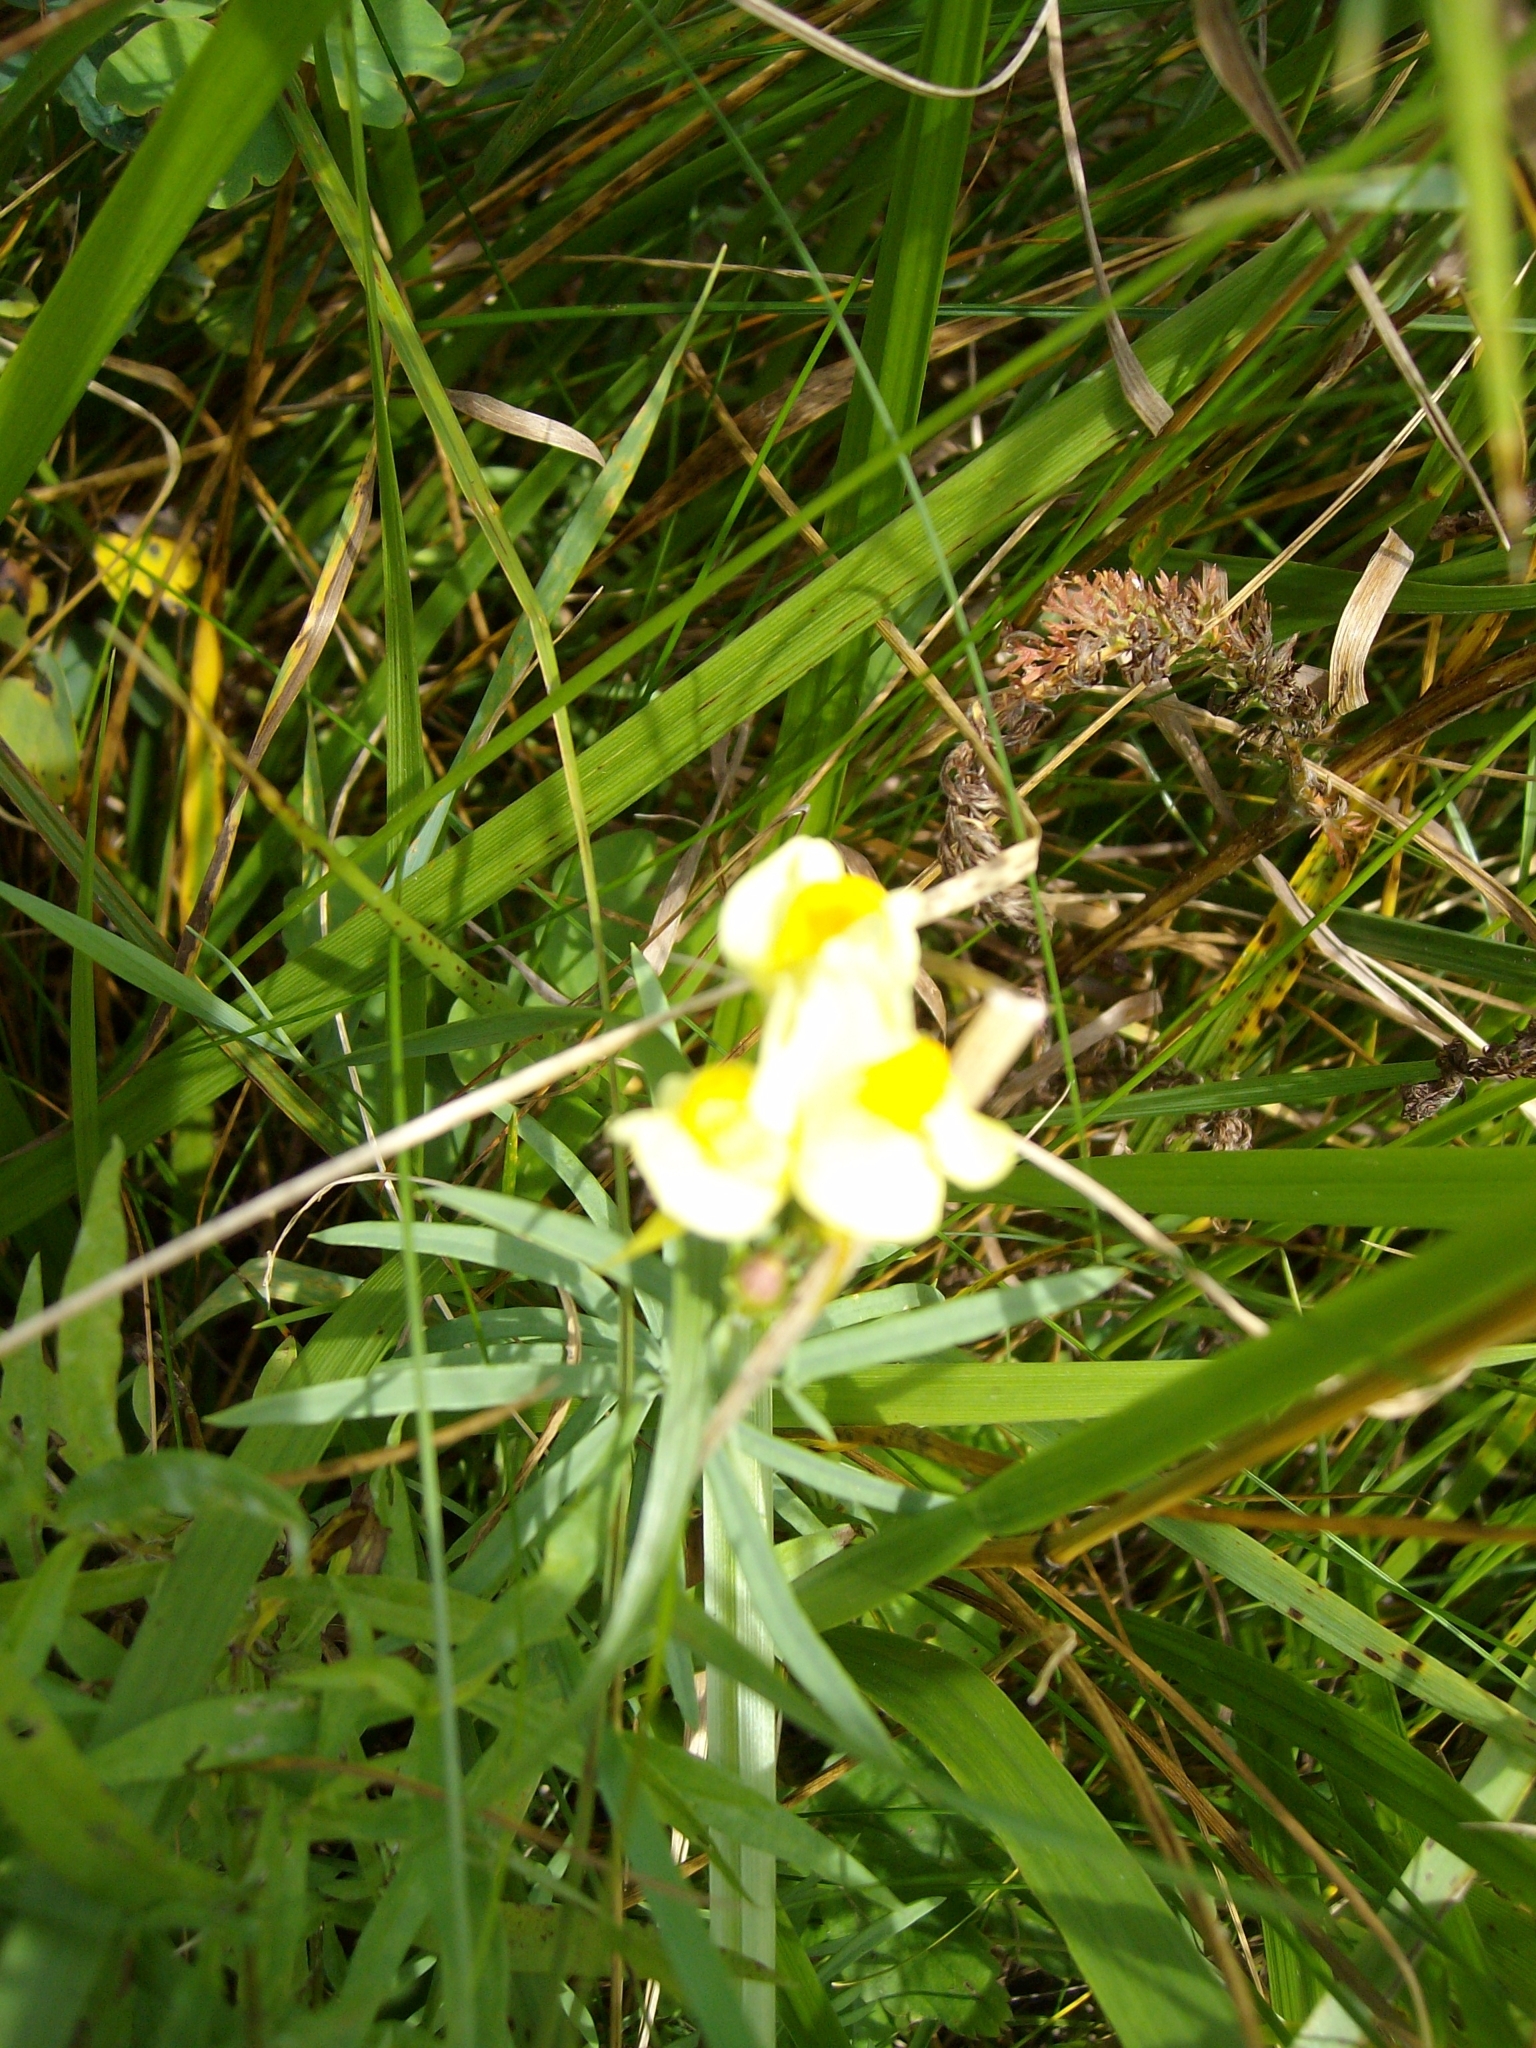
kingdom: Plantae
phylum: Tracheophyta
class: Magnoliopsida
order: Lamiales
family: Plantaginaceae
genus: Linaria
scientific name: Linaria vulgaris
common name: Butter and eggs
